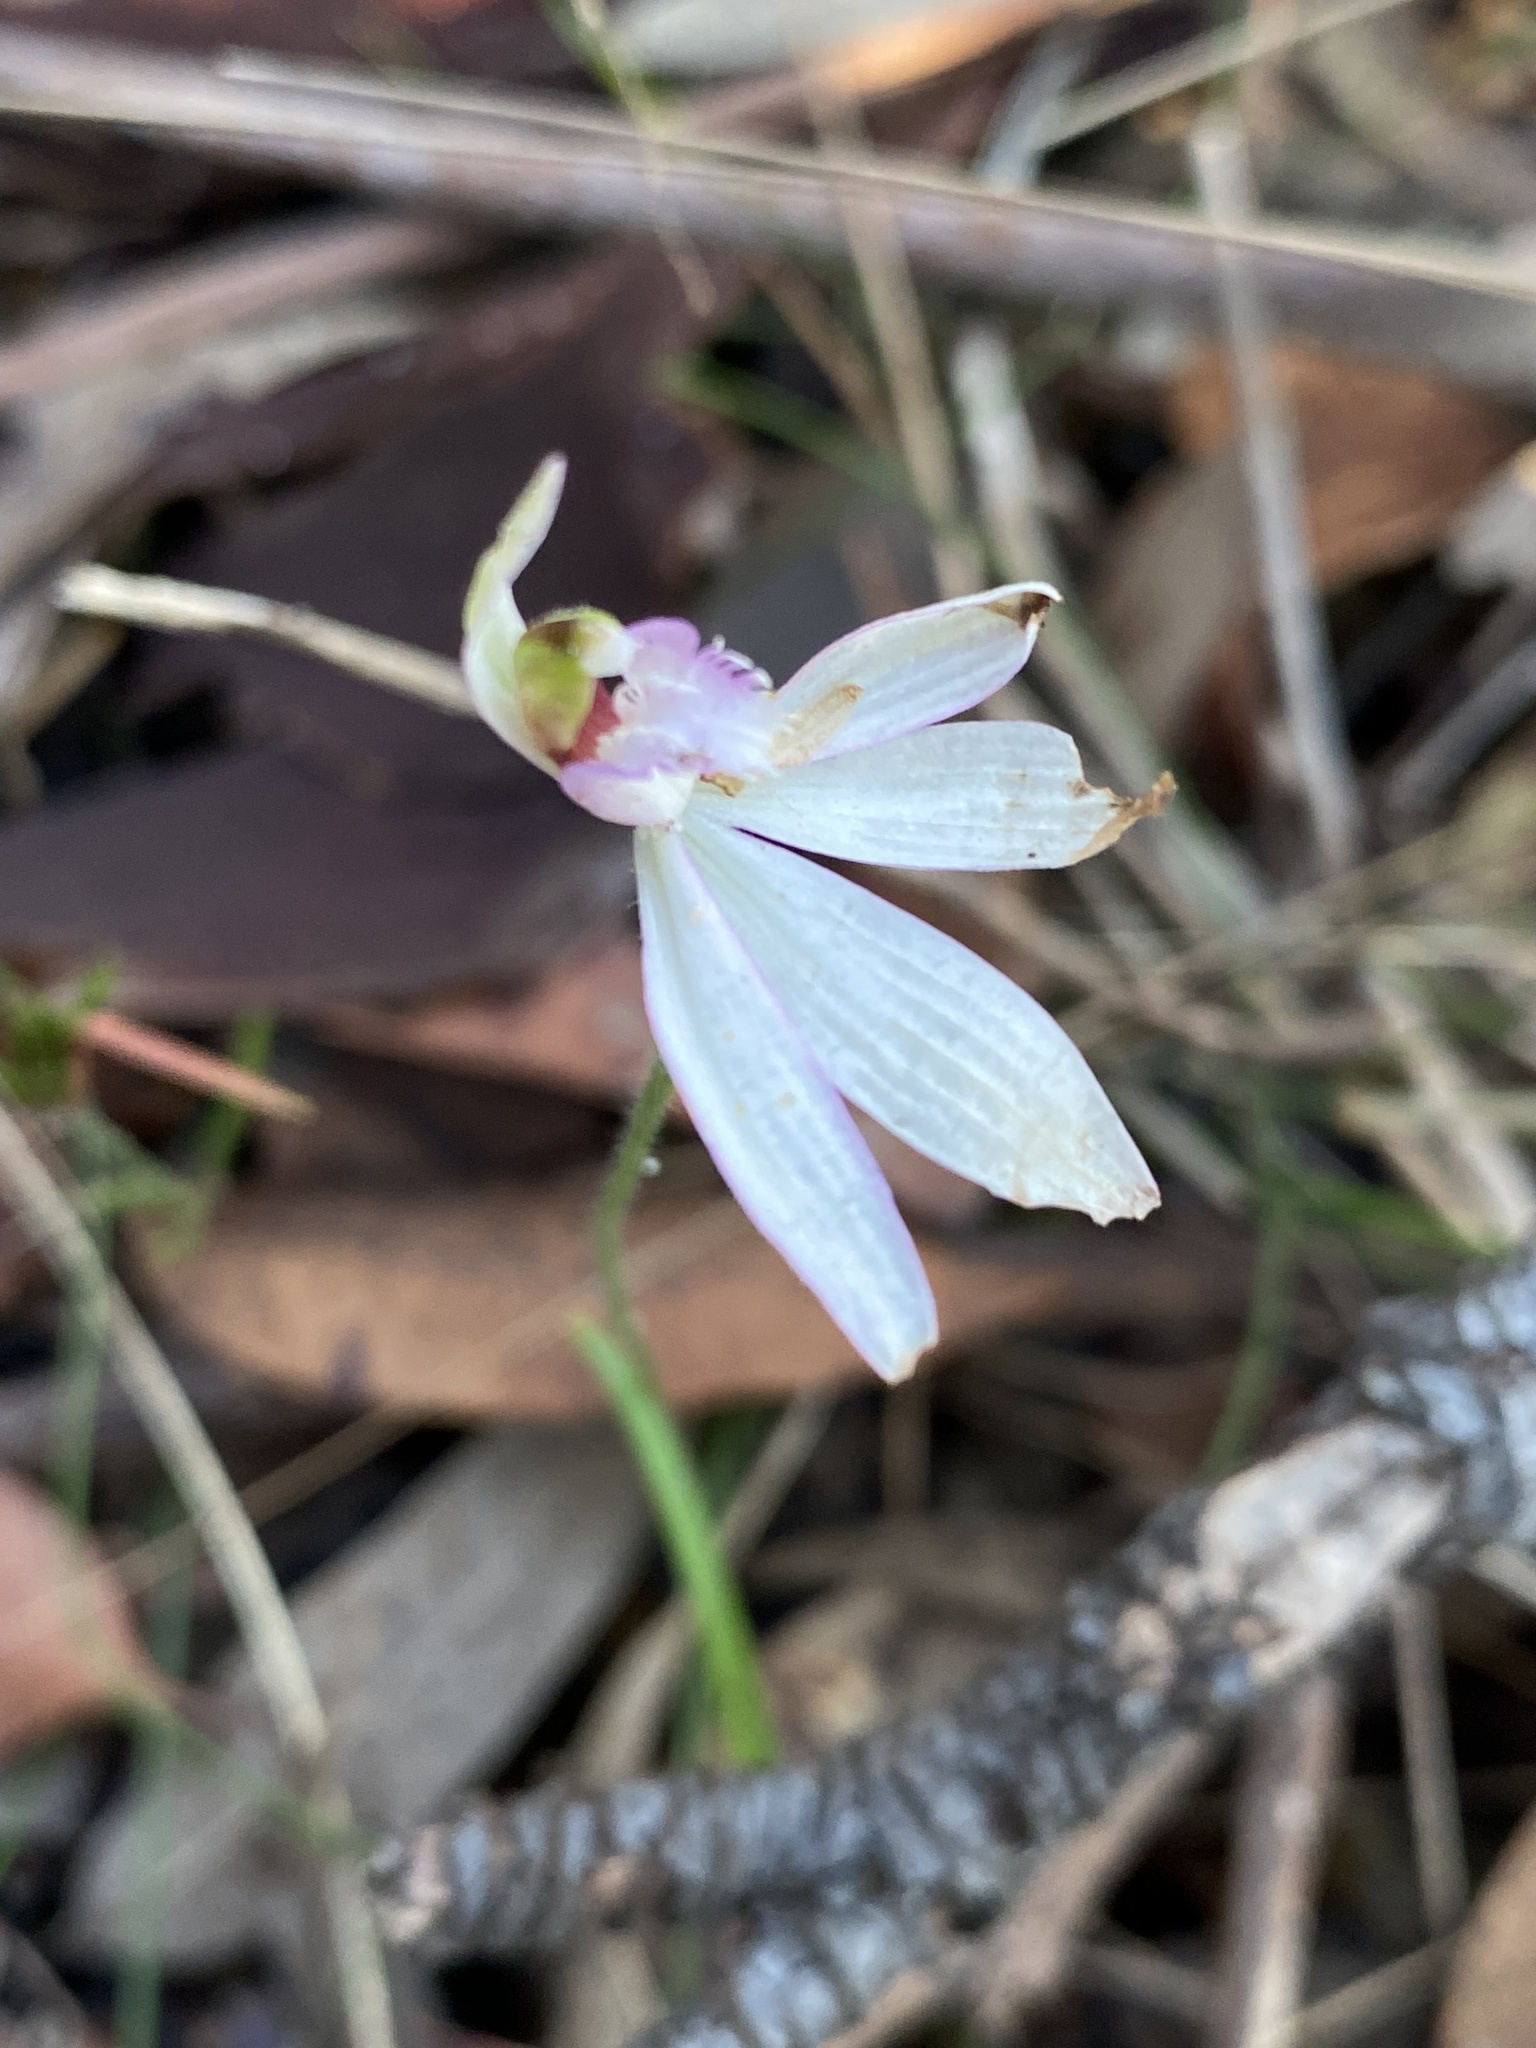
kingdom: Plantae
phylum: Tracheophyta
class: Liliopsida
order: Asparagales
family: Orchidaceae
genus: Caladenia
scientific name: Caladenia picta
